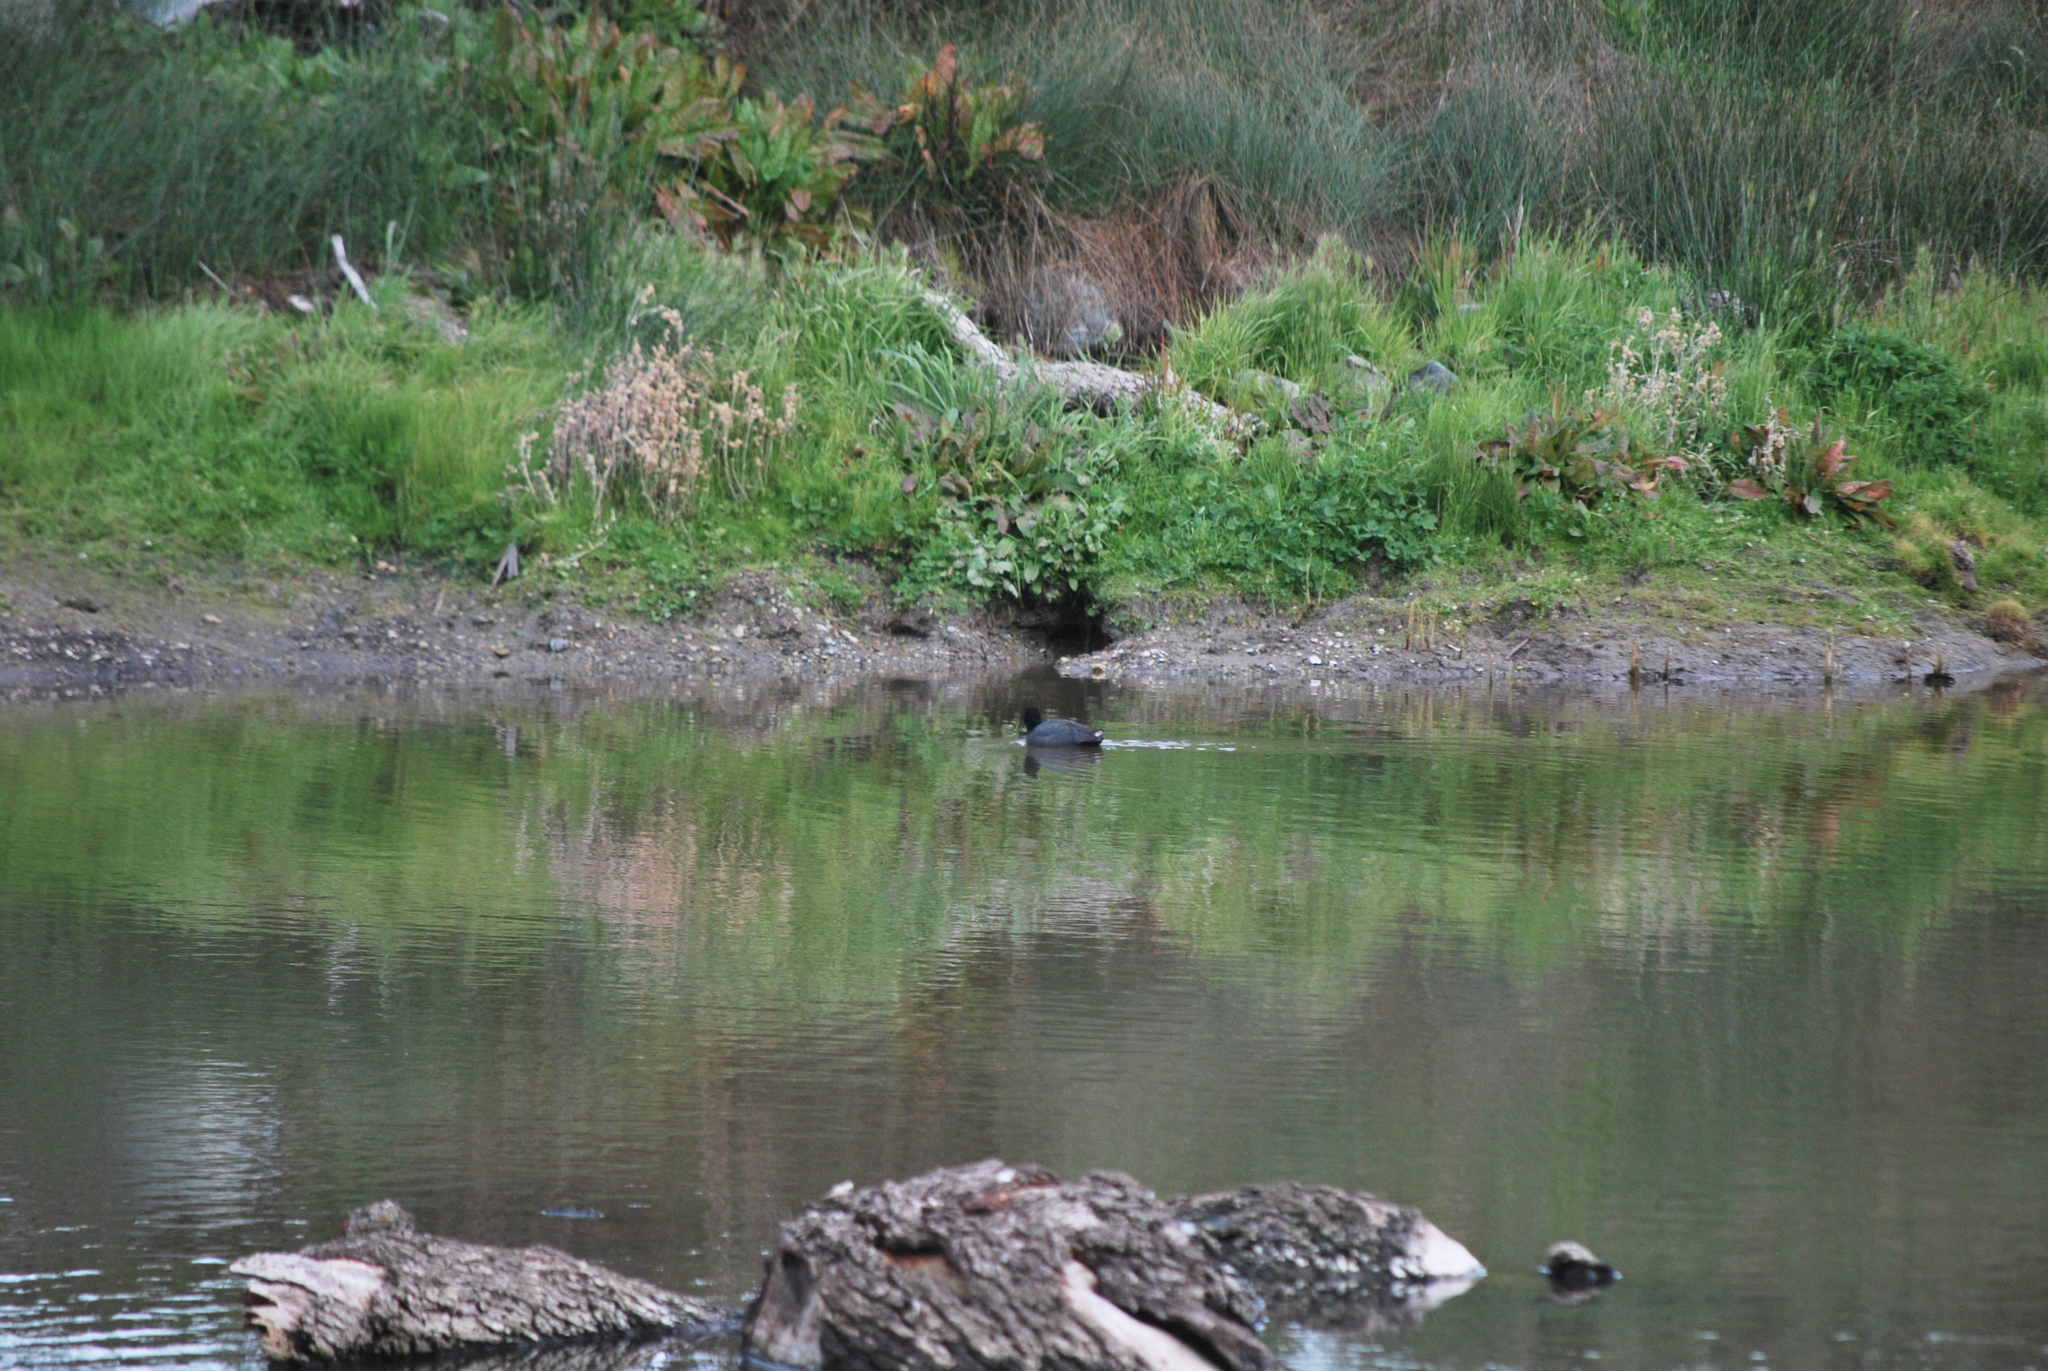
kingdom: Animalia
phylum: Chordata
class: Aves
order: Gruiformes
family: Rallidae
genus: Fulica
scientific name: Fulica americana
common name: American coot
